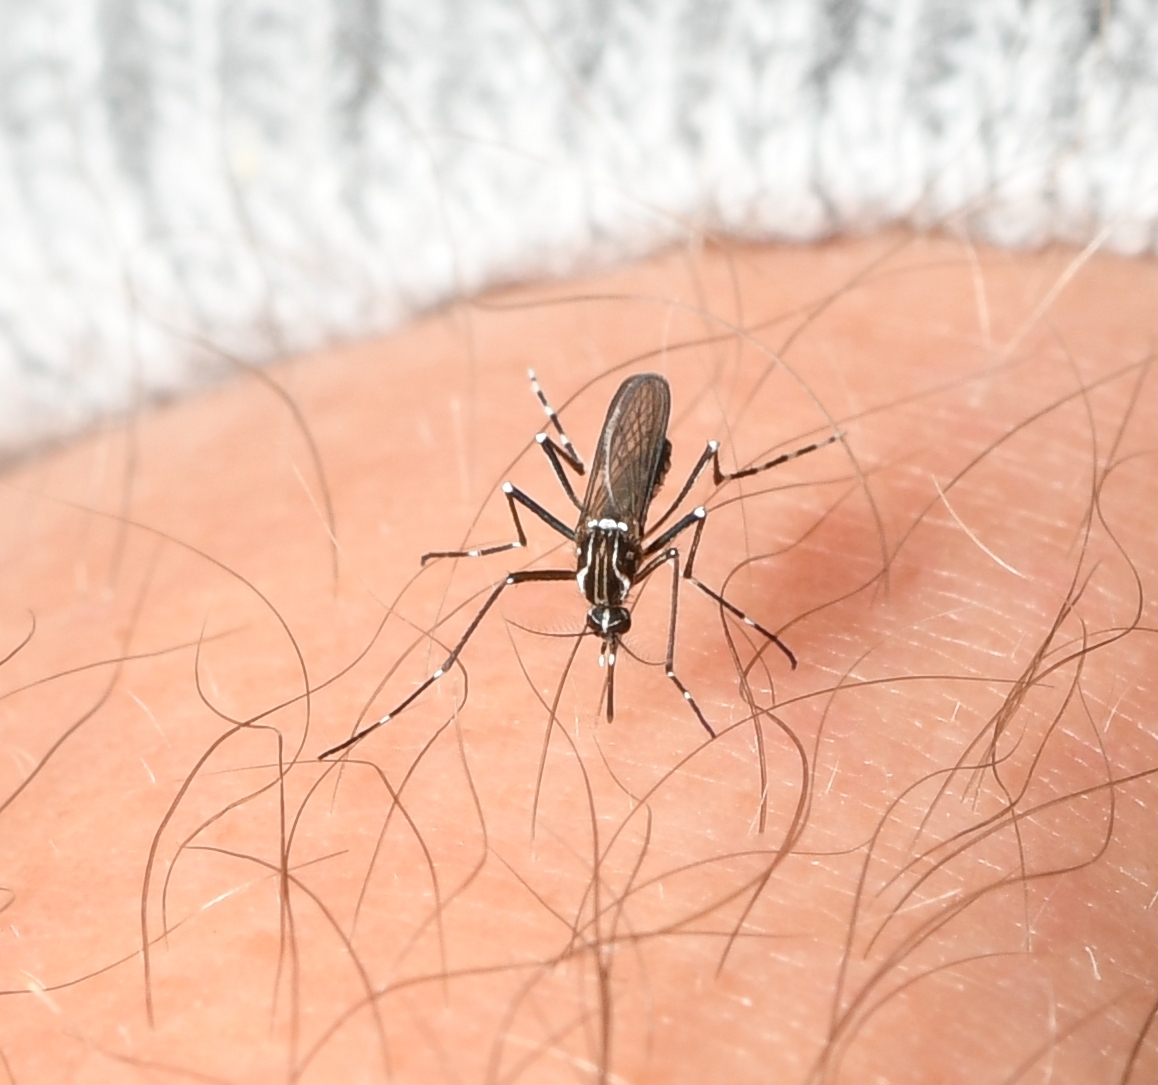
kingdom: Animalia
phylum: Arthropoda
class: Insecta
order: Diptera
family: Culicidae
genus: Aedes
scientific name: Aedes aegypti
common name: Yellow fever mosquito
